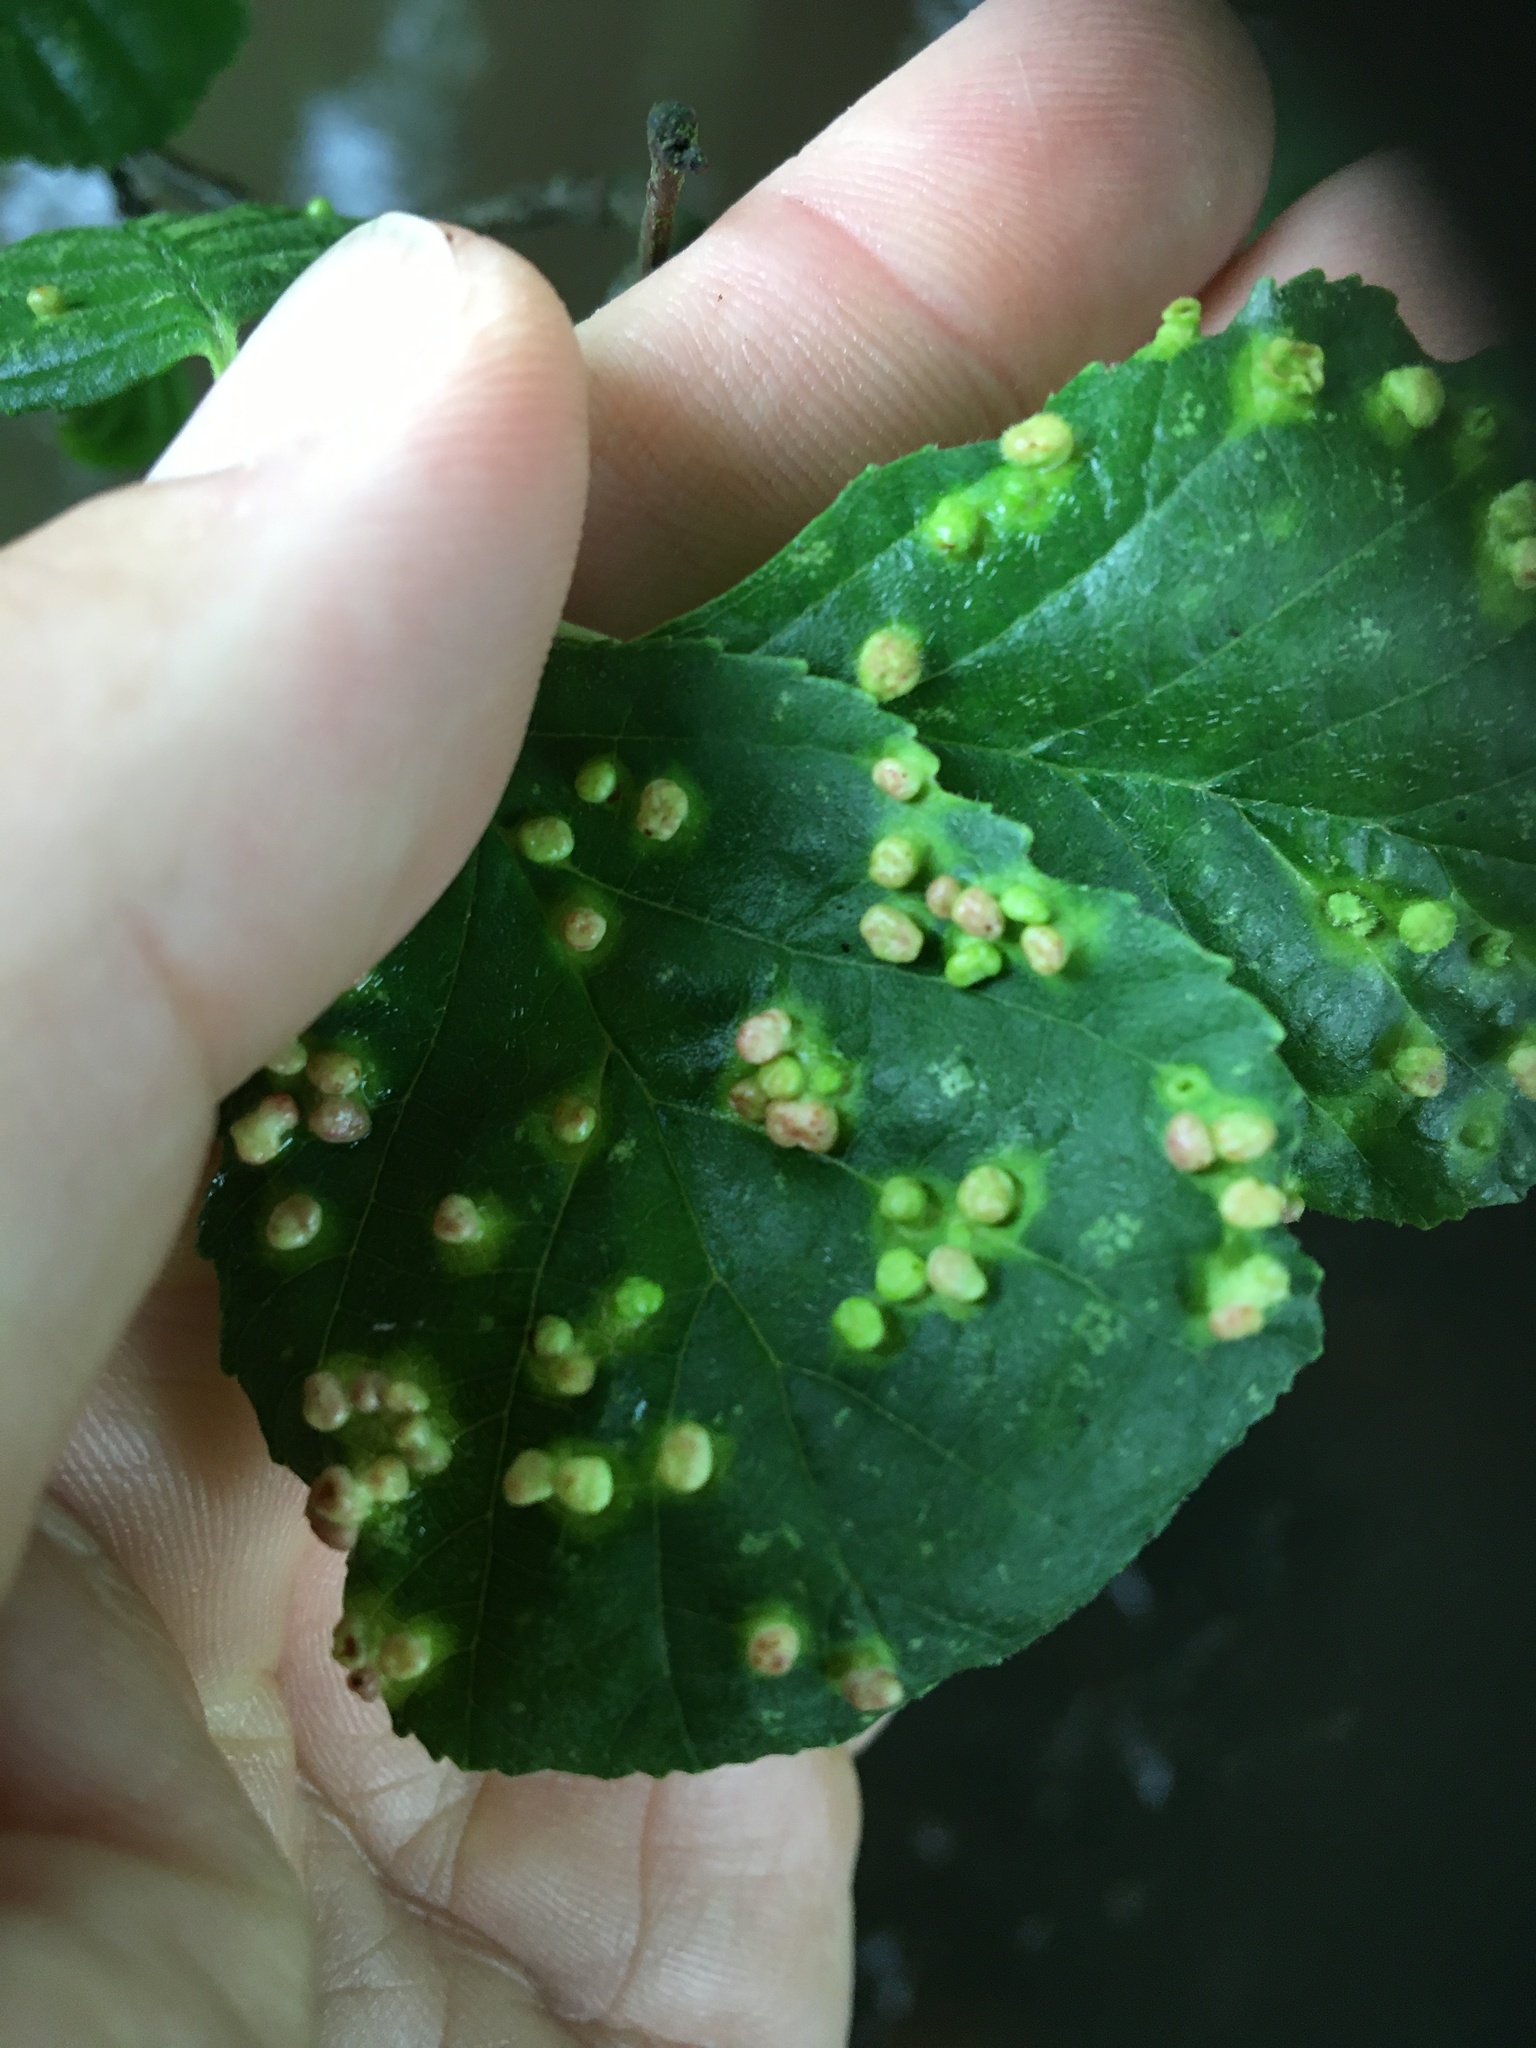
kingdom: Animalia
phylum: Arthropoda
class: Arachnida
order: Trombidiformes
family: Eriophyidae
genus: Eriophyes
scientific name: Eriophyes laevis
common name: Alder leaf gall mite
